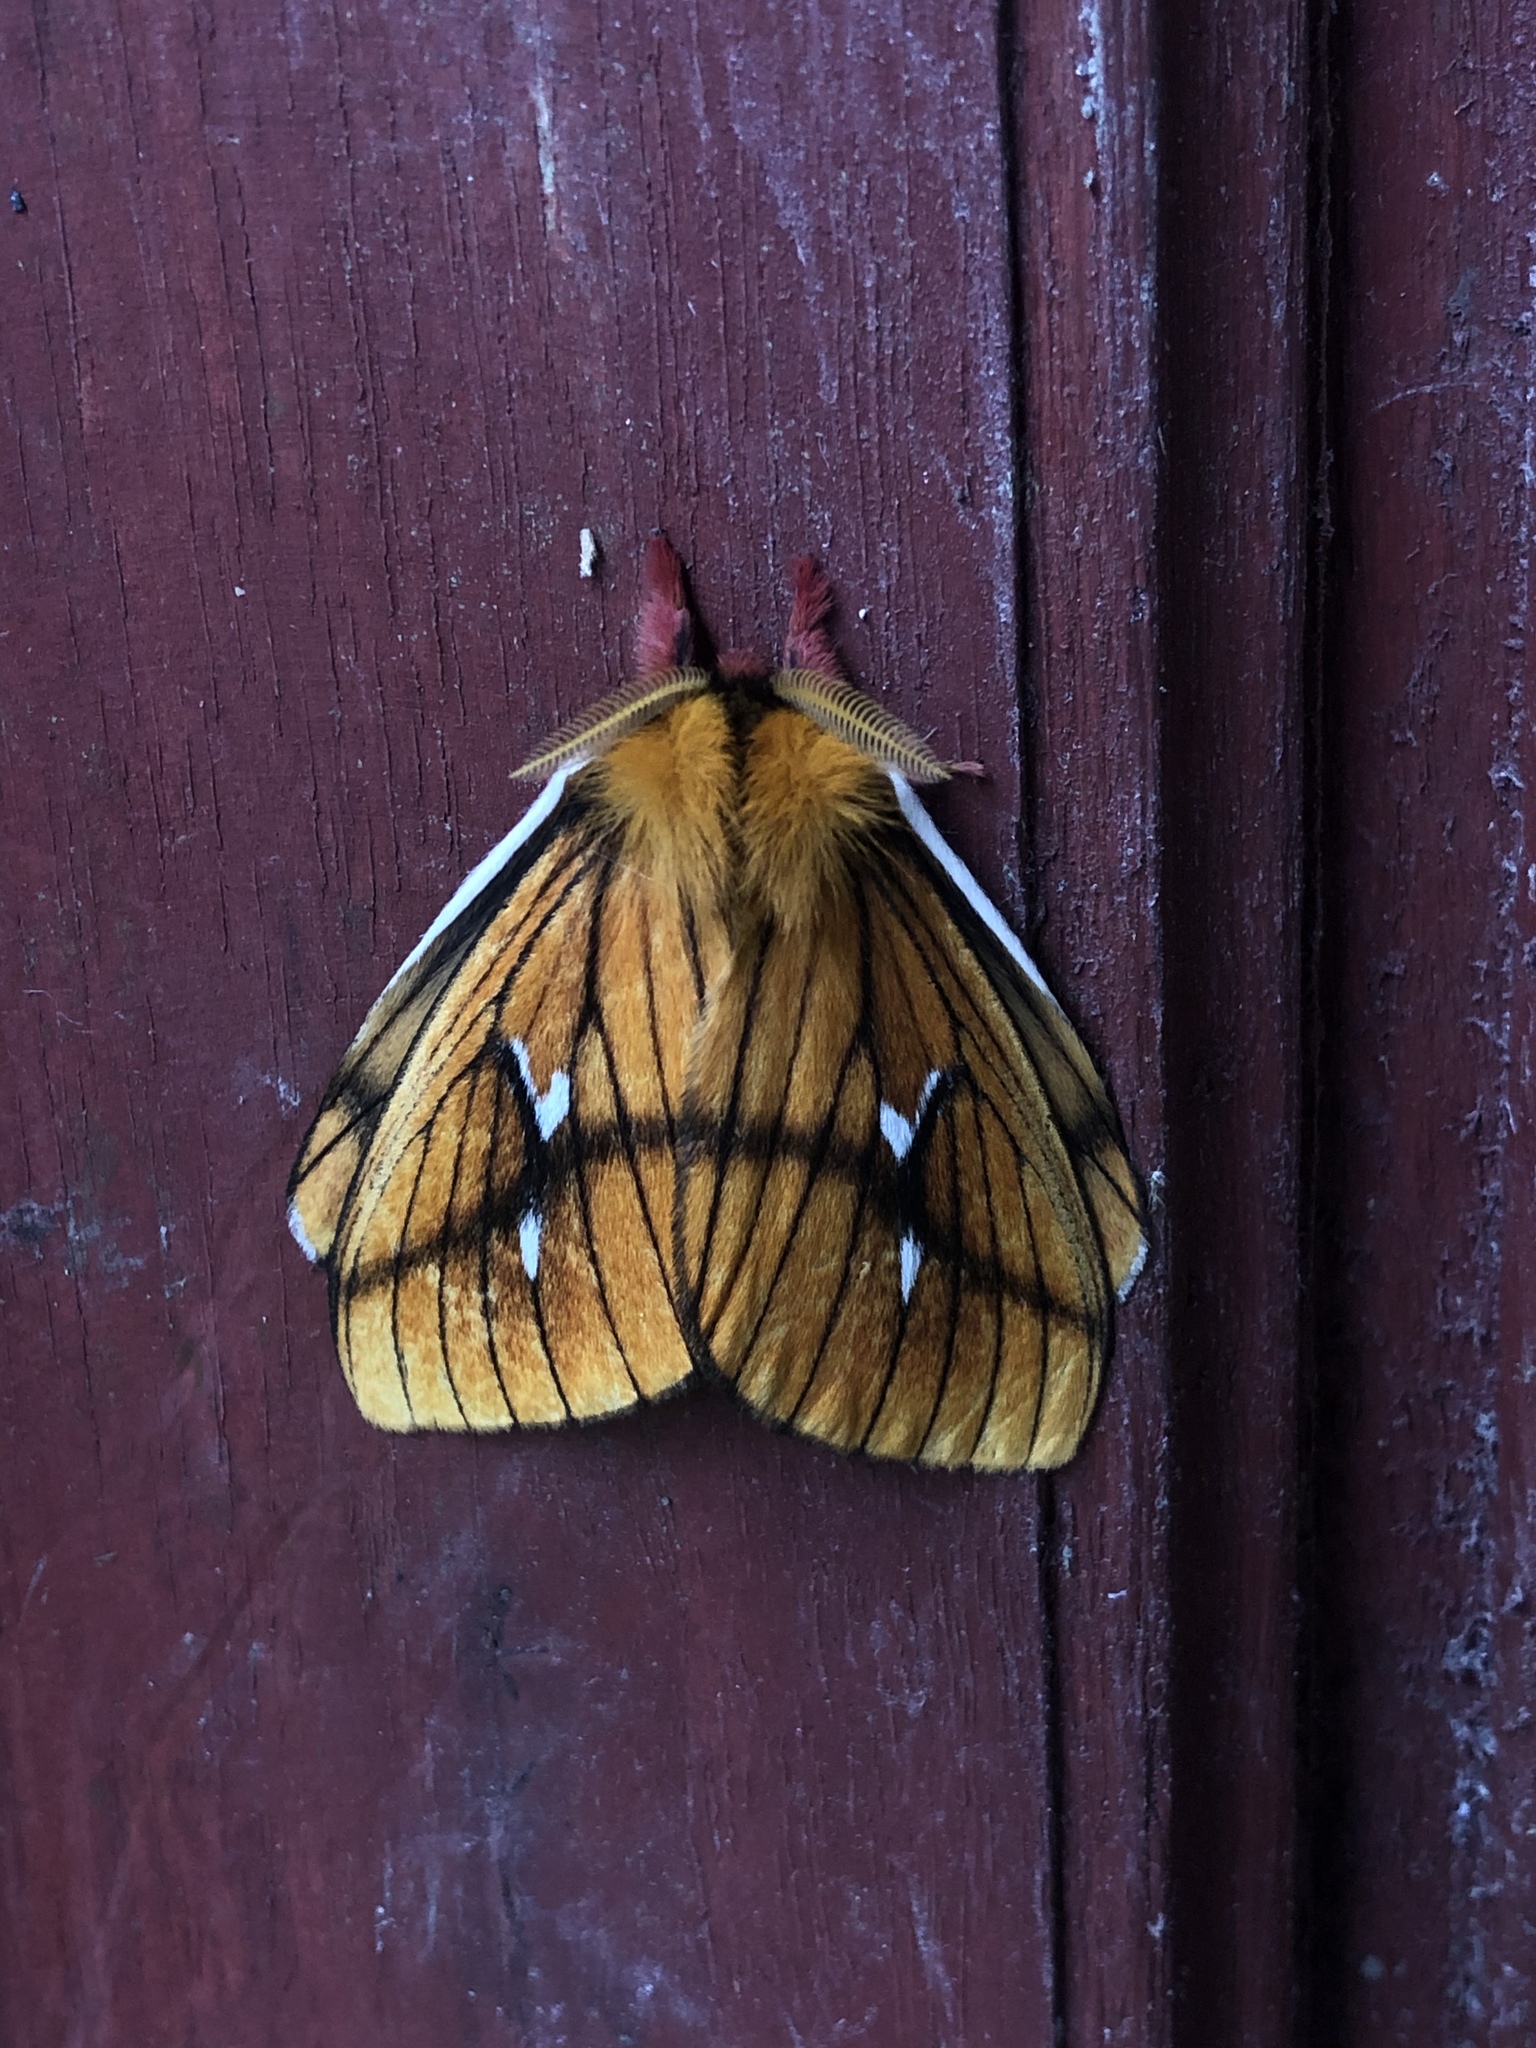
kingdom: Animalia
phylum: Arthropoda
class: Insecta
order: Lepidoptera
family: Saturniidae
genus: Cerodirphia
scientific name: Cerodirphia nadiana
